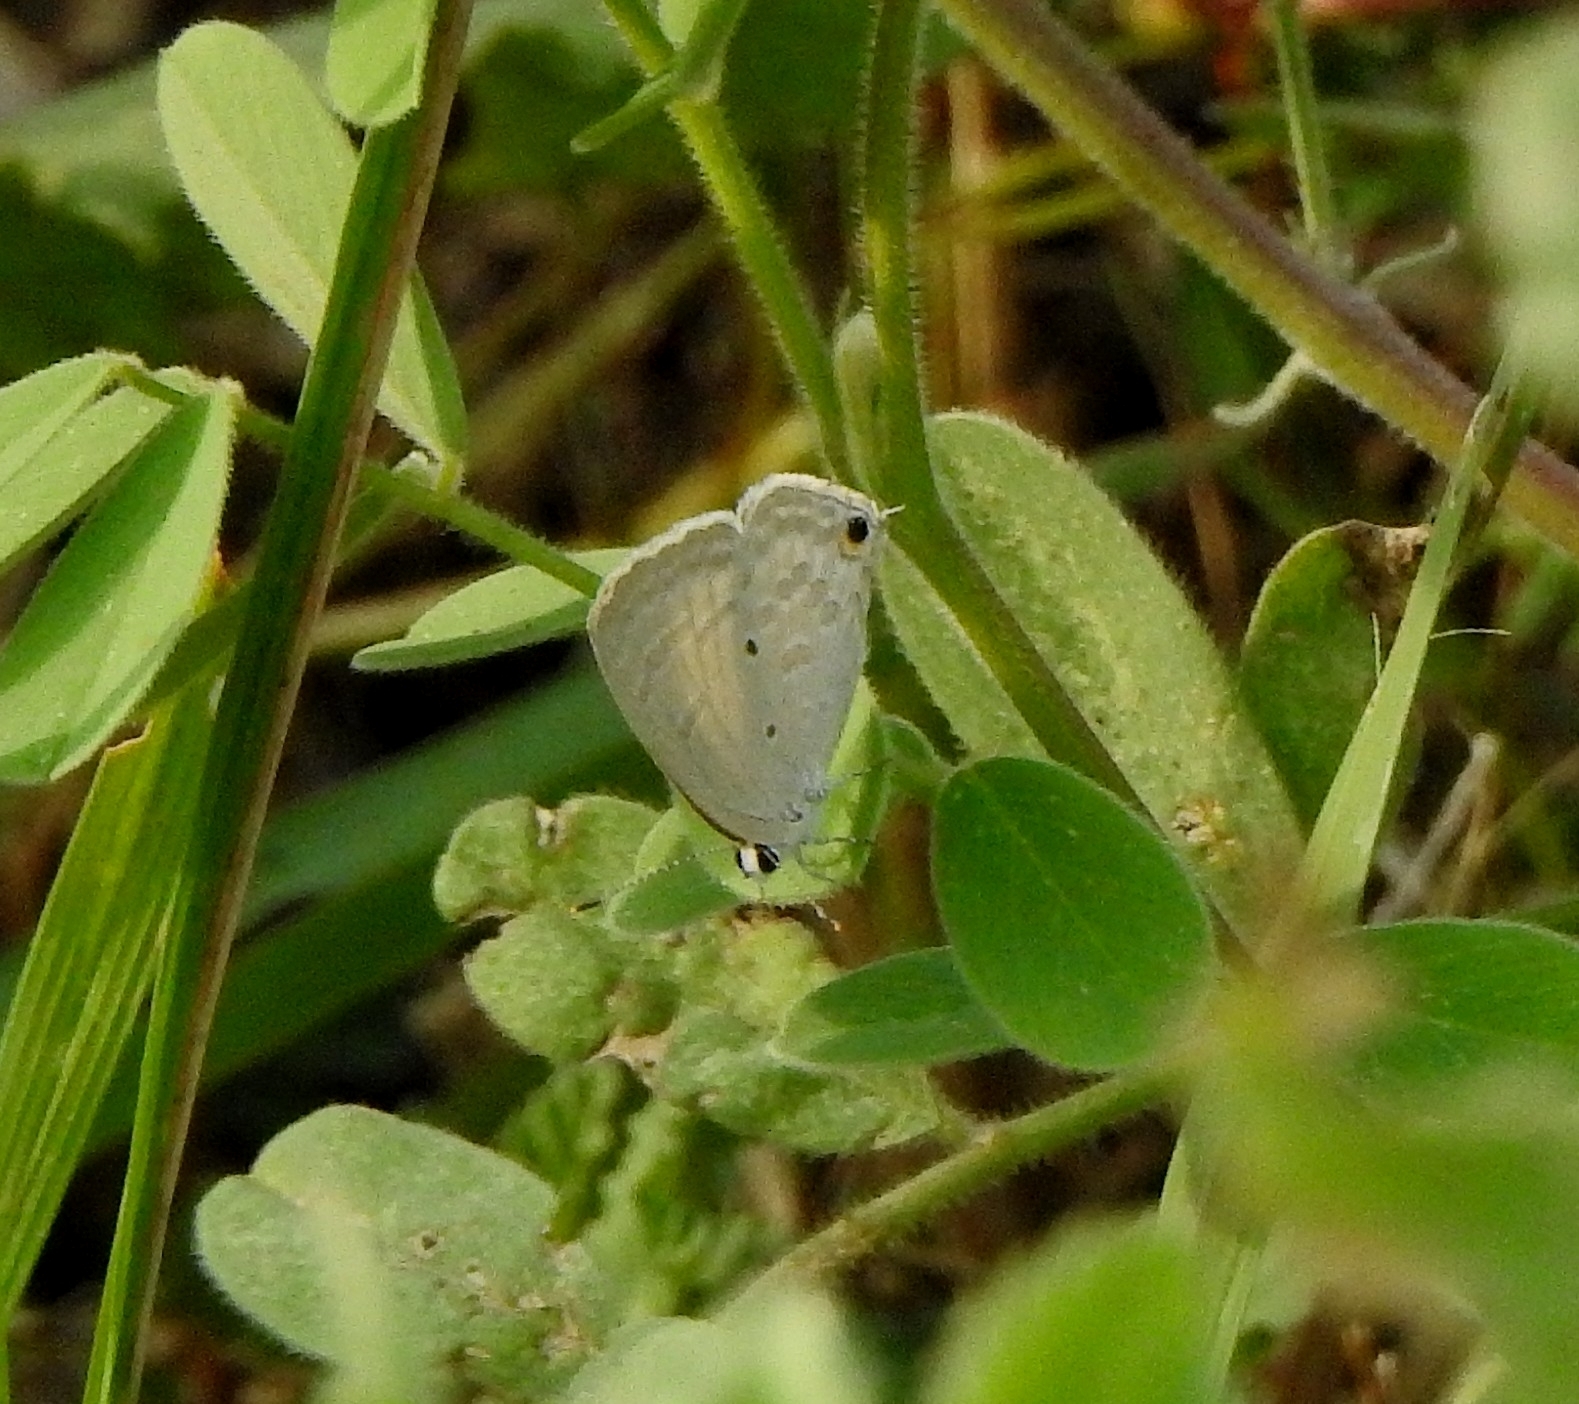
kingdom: Animalia
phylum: Arthropoda
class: Insecta
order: Lepidoptera
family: Lycaenidae
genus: Catochrysops
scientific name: Catochrysops strabo
